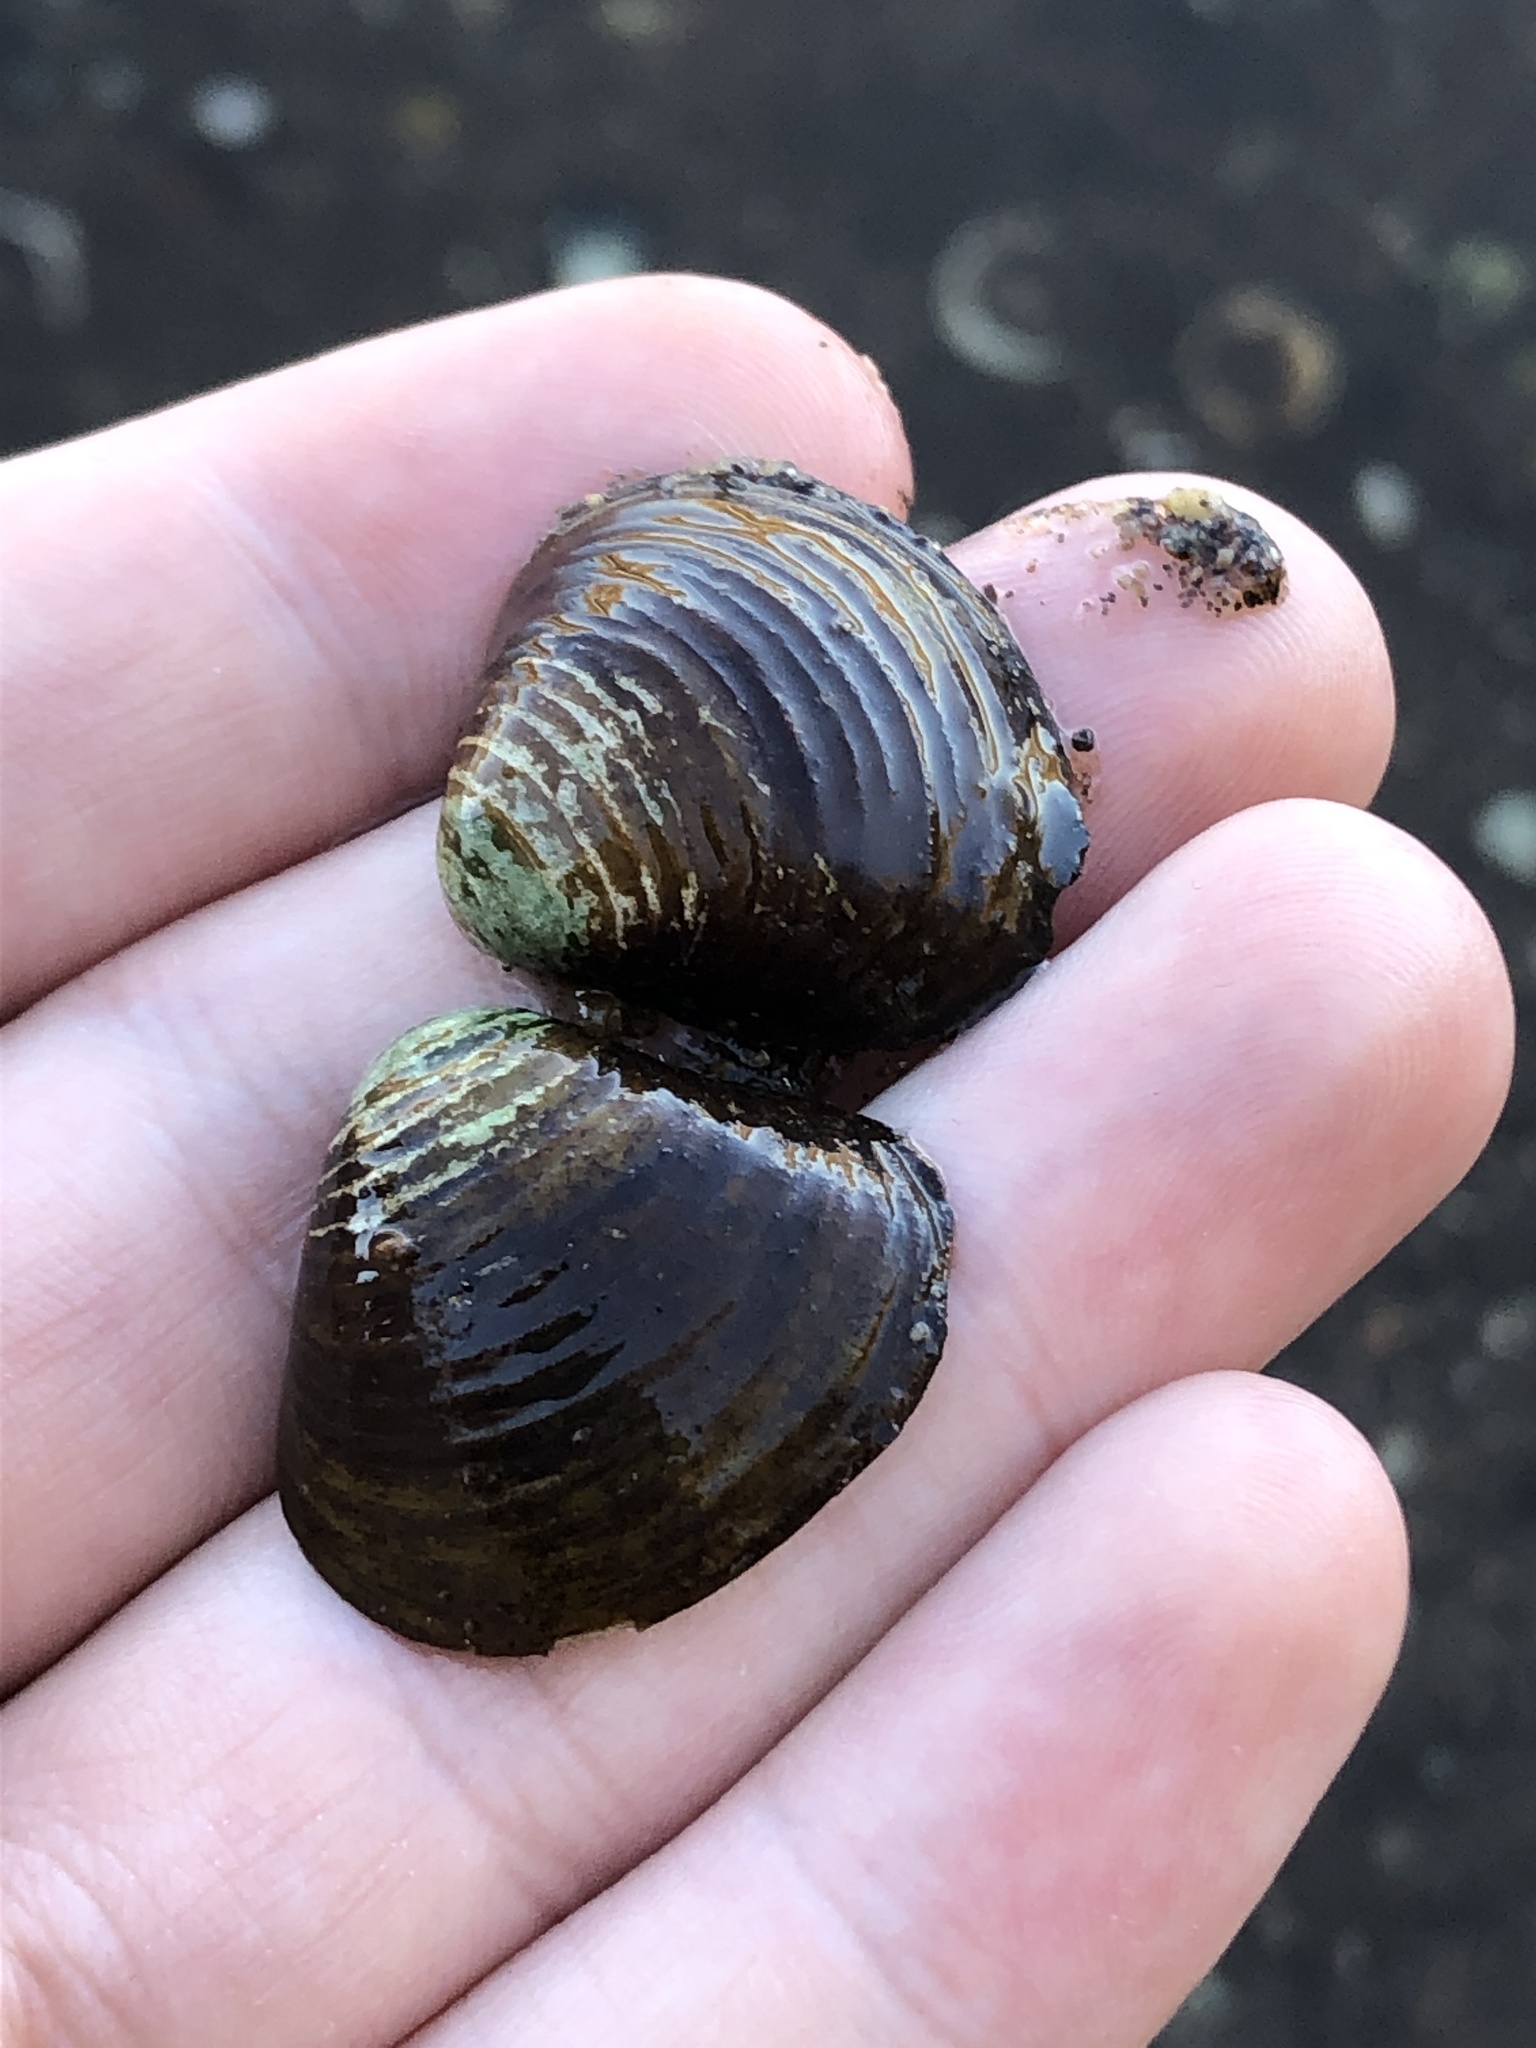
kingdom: Animalia
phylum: Mollusca
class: Bivalvia
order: Venerida
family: Cyrenidae
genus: Corbicula
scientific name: Corbicula fluminea
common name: Asian clam
